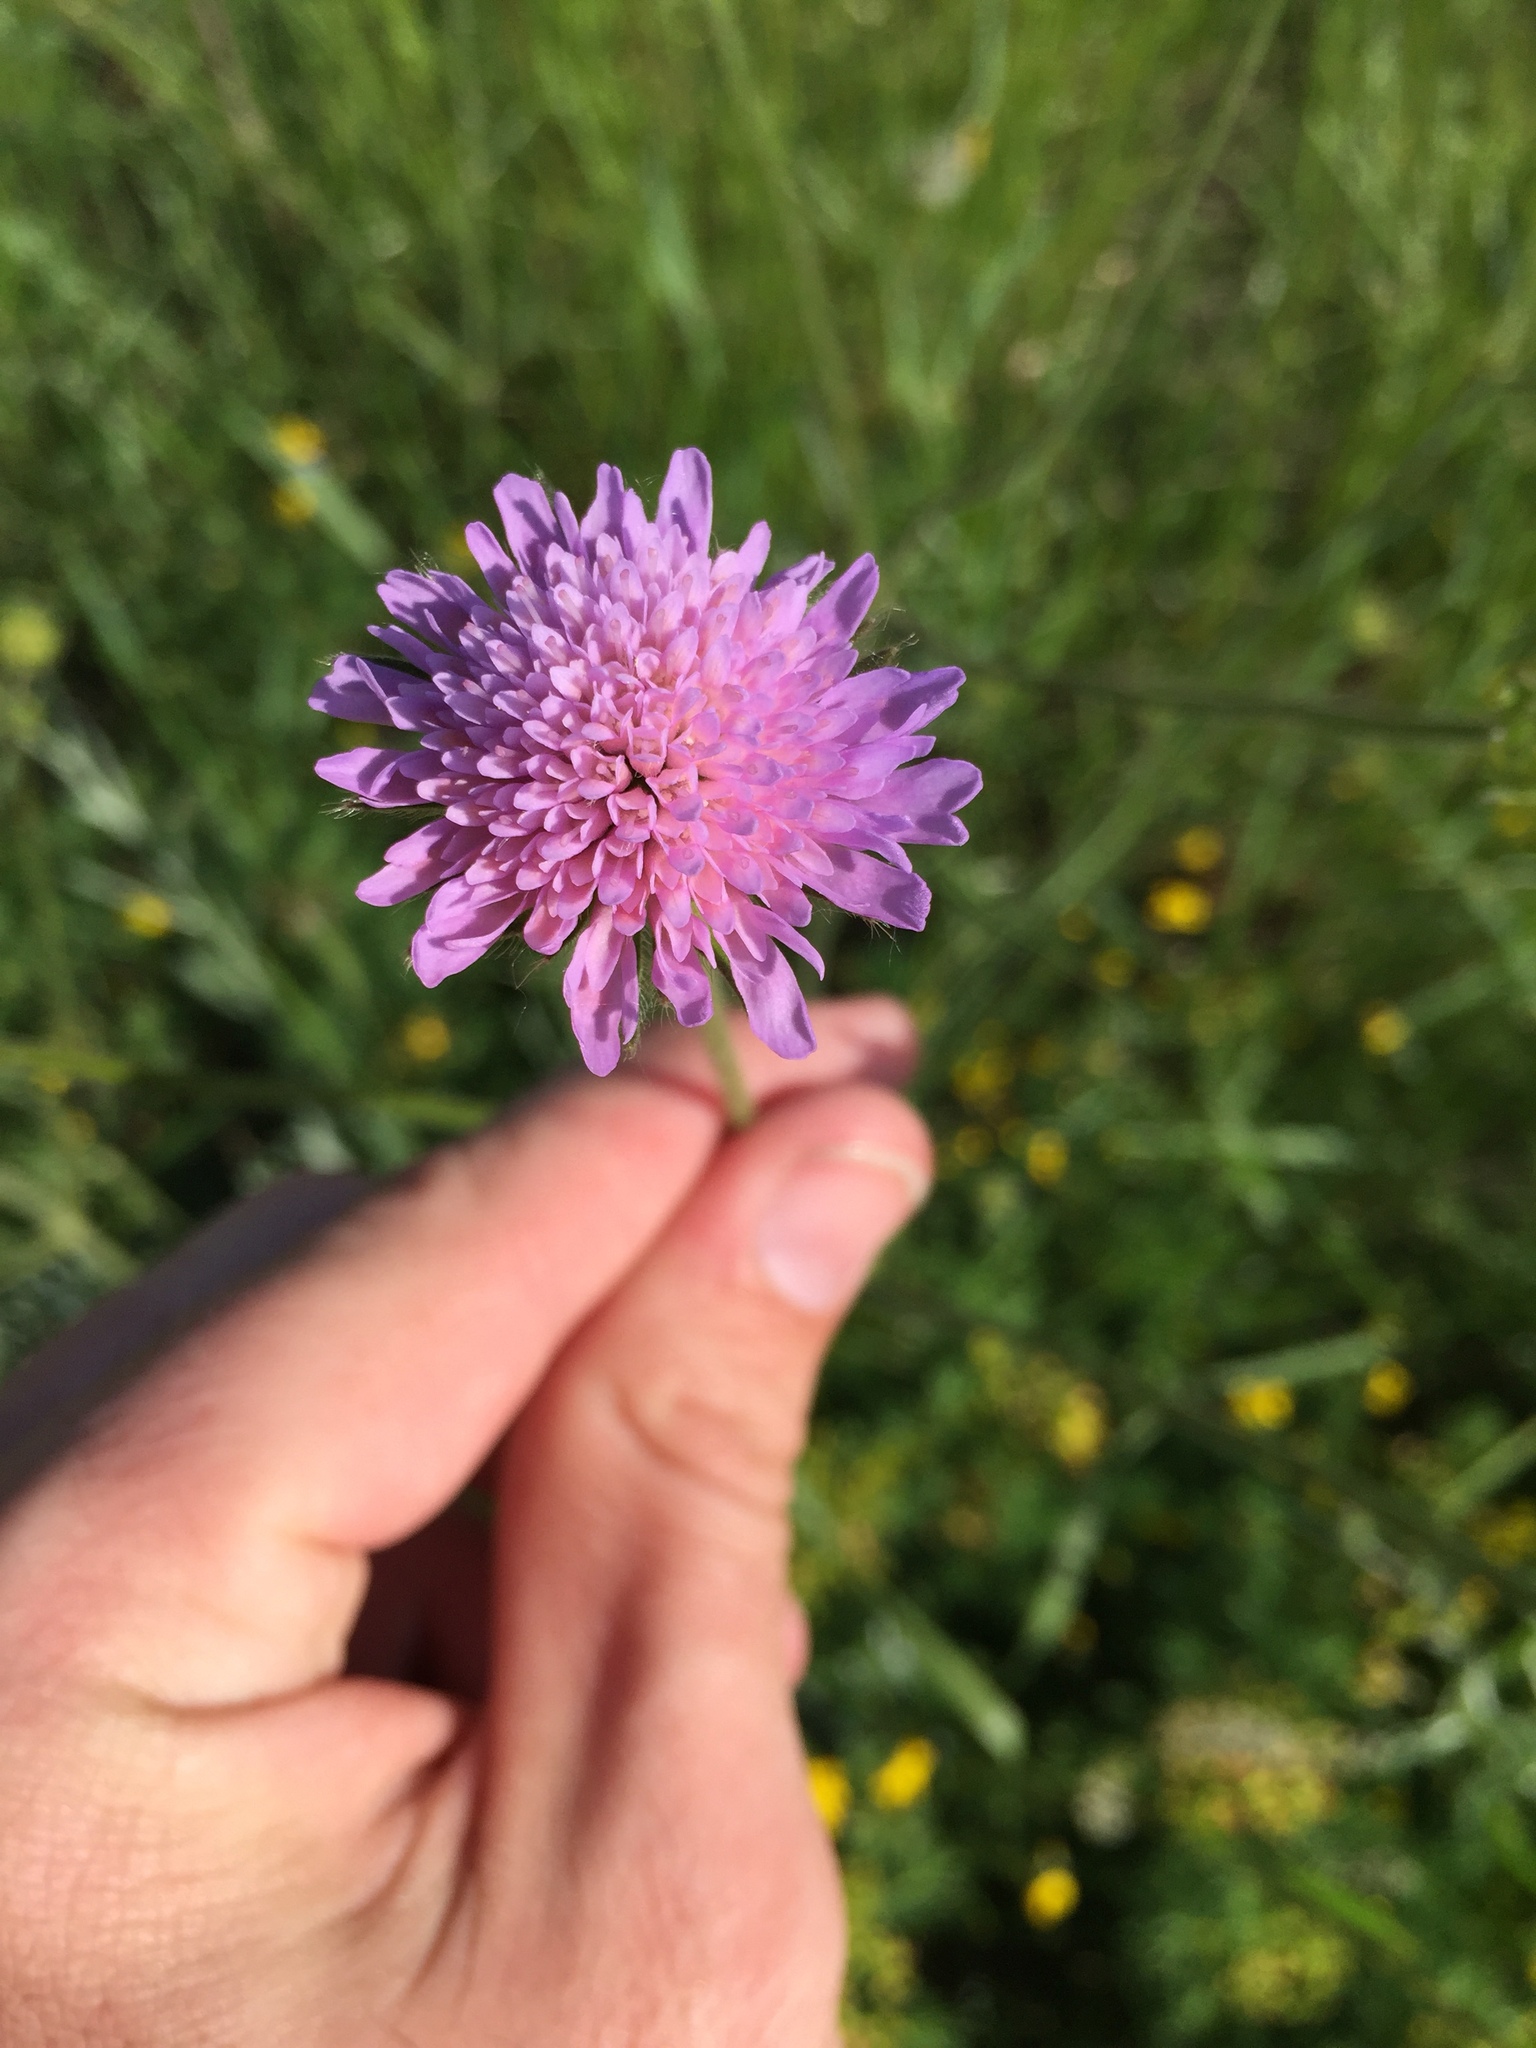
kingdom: Plantae
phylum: Tracheophyta
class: Magnoliopsida
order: Dipsacales
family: Caprifoliaceae
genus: Knautia
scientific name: Knautia arvensis
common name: Field scabiosa
